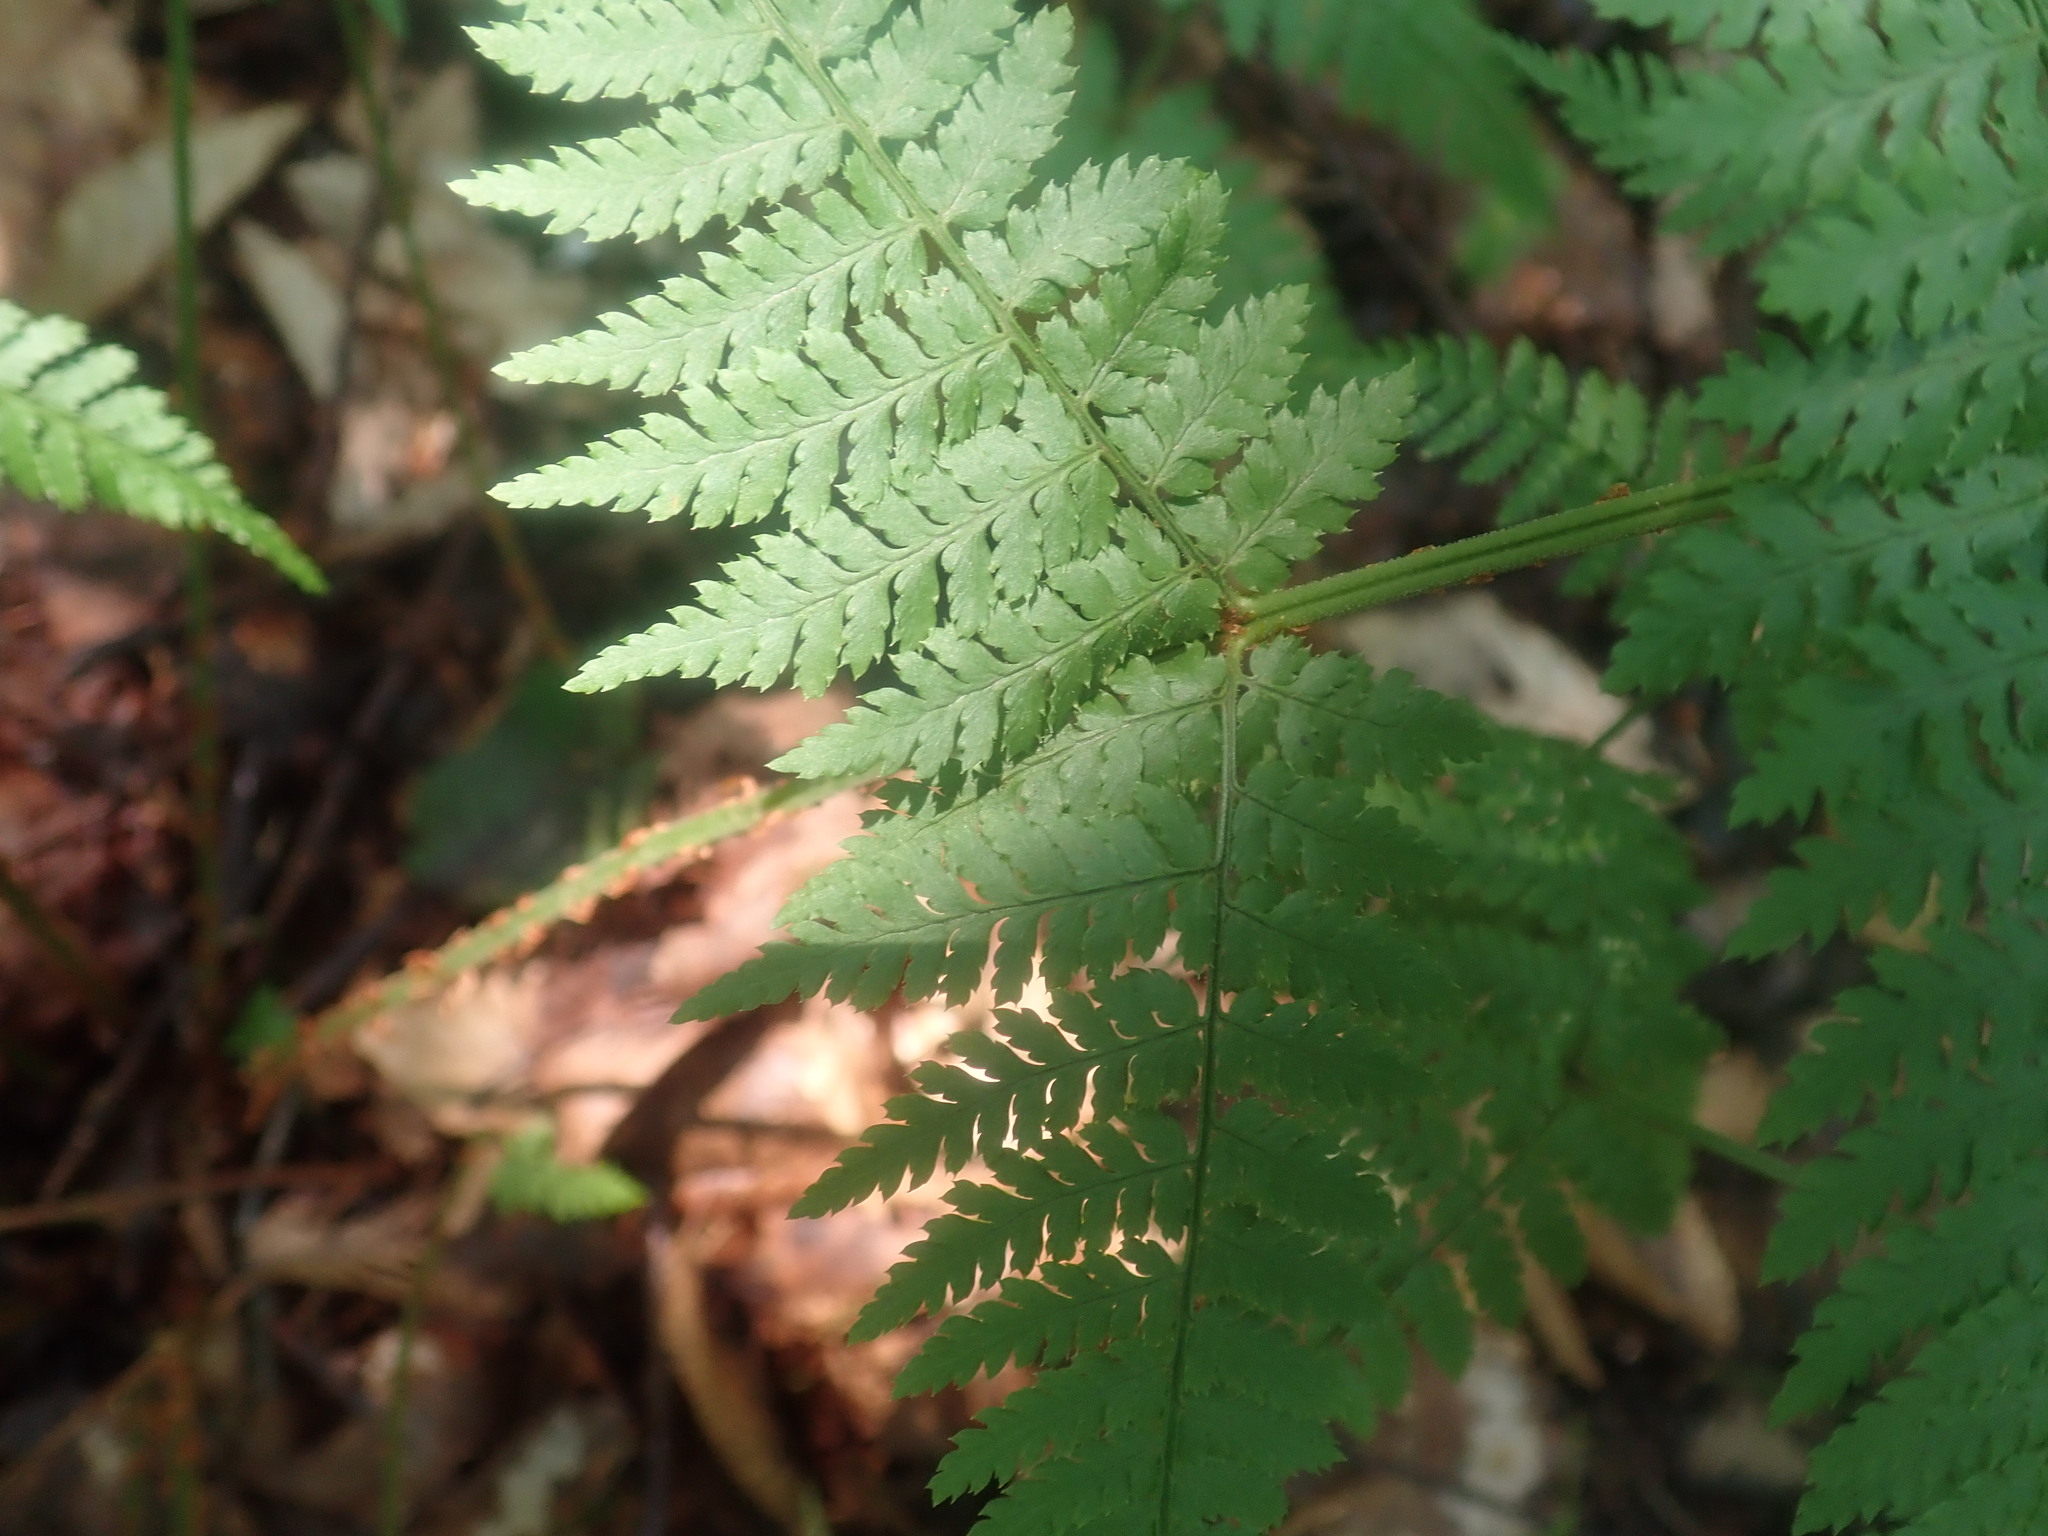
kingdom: Plantae
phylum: Tracheophyta
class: Polypodiopsida
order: Polypodiales
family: Dryopteridaceae
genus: Dryopteris
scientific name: Dryopteris intermedia
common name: Evergreen wood fern
